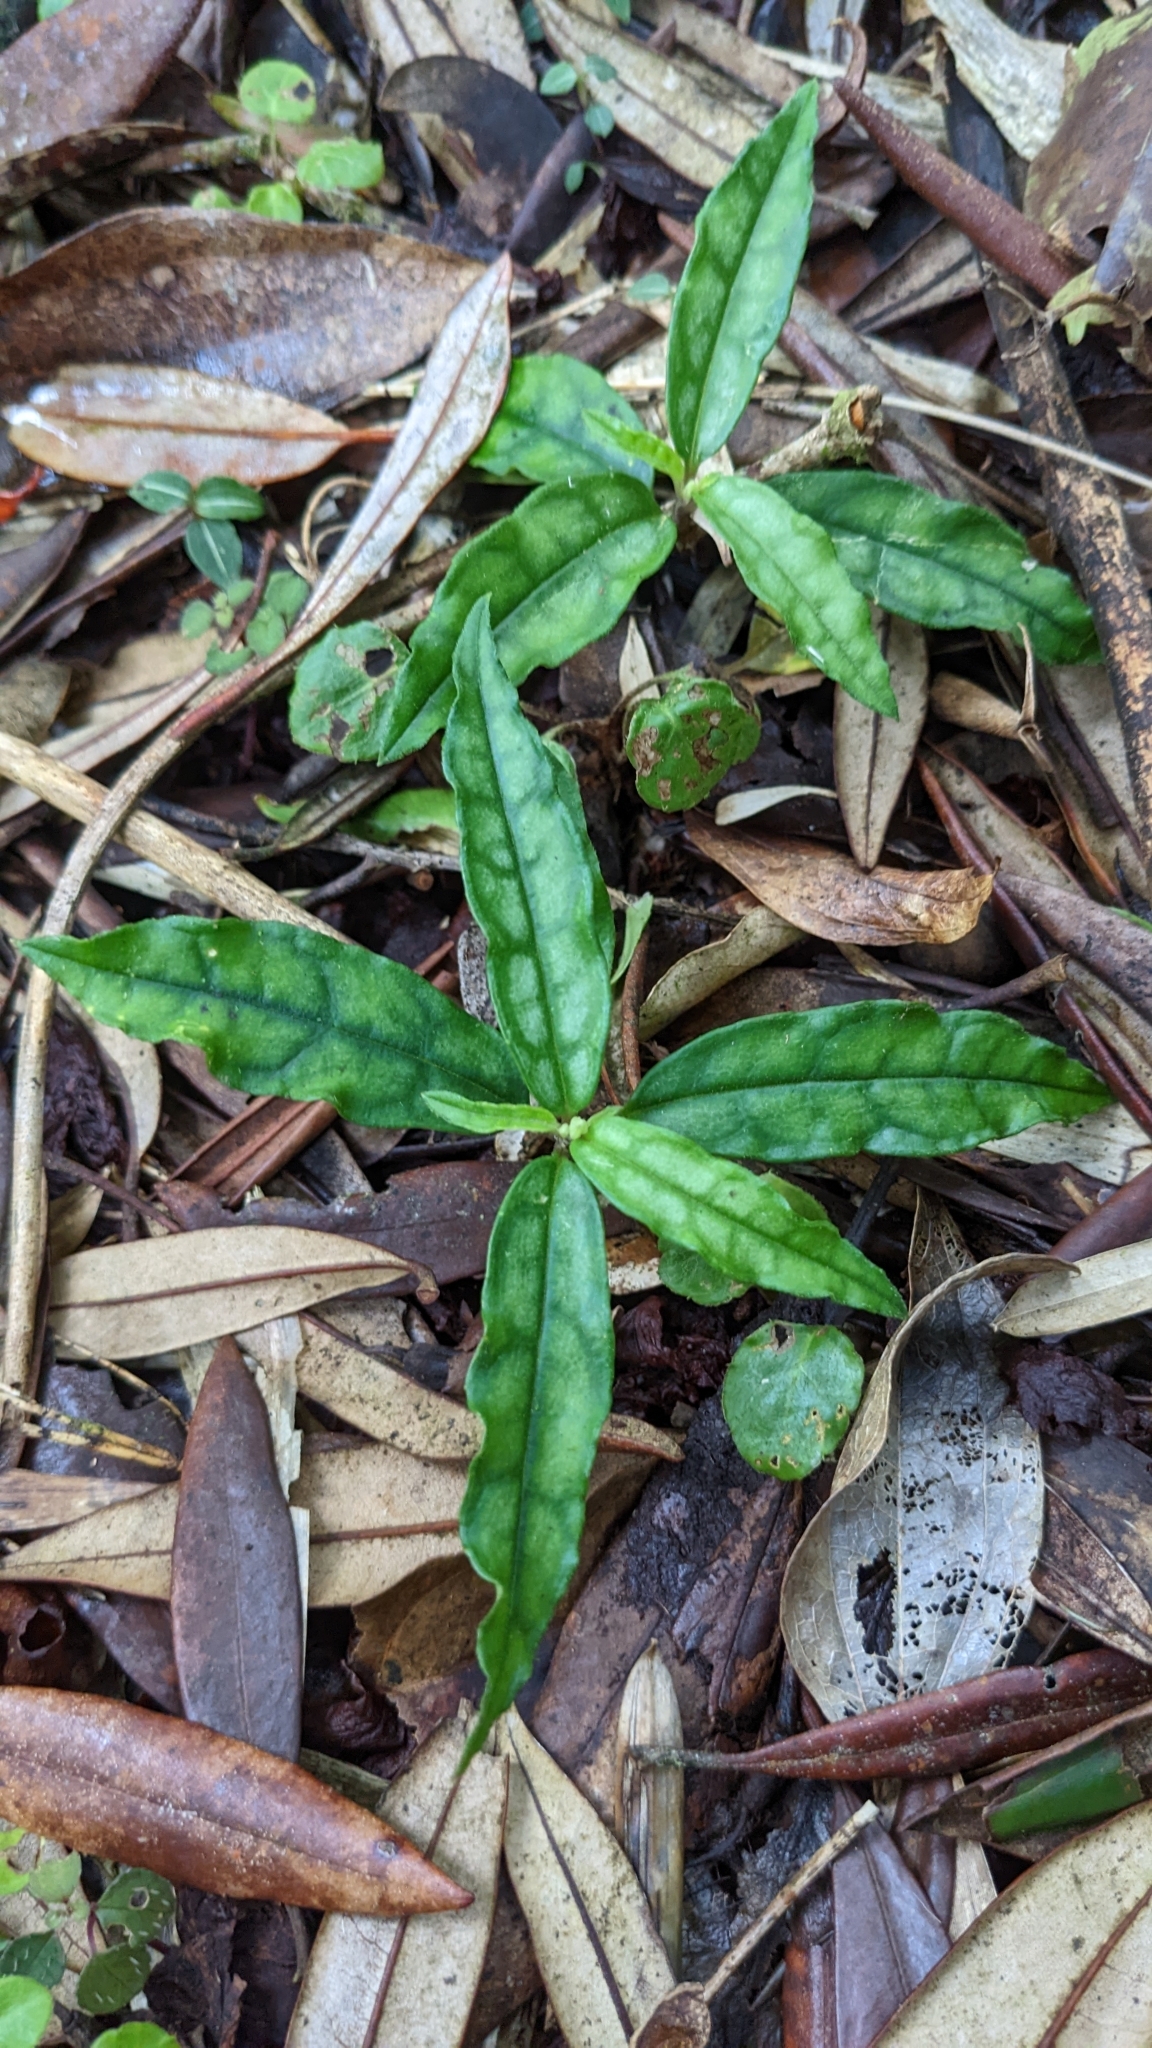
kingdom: Plantae
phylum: Tracheophyta
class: Magnoliopsida
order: Fabales
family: Polygalaceae
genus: Polygala
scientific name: Polygala arcuata
